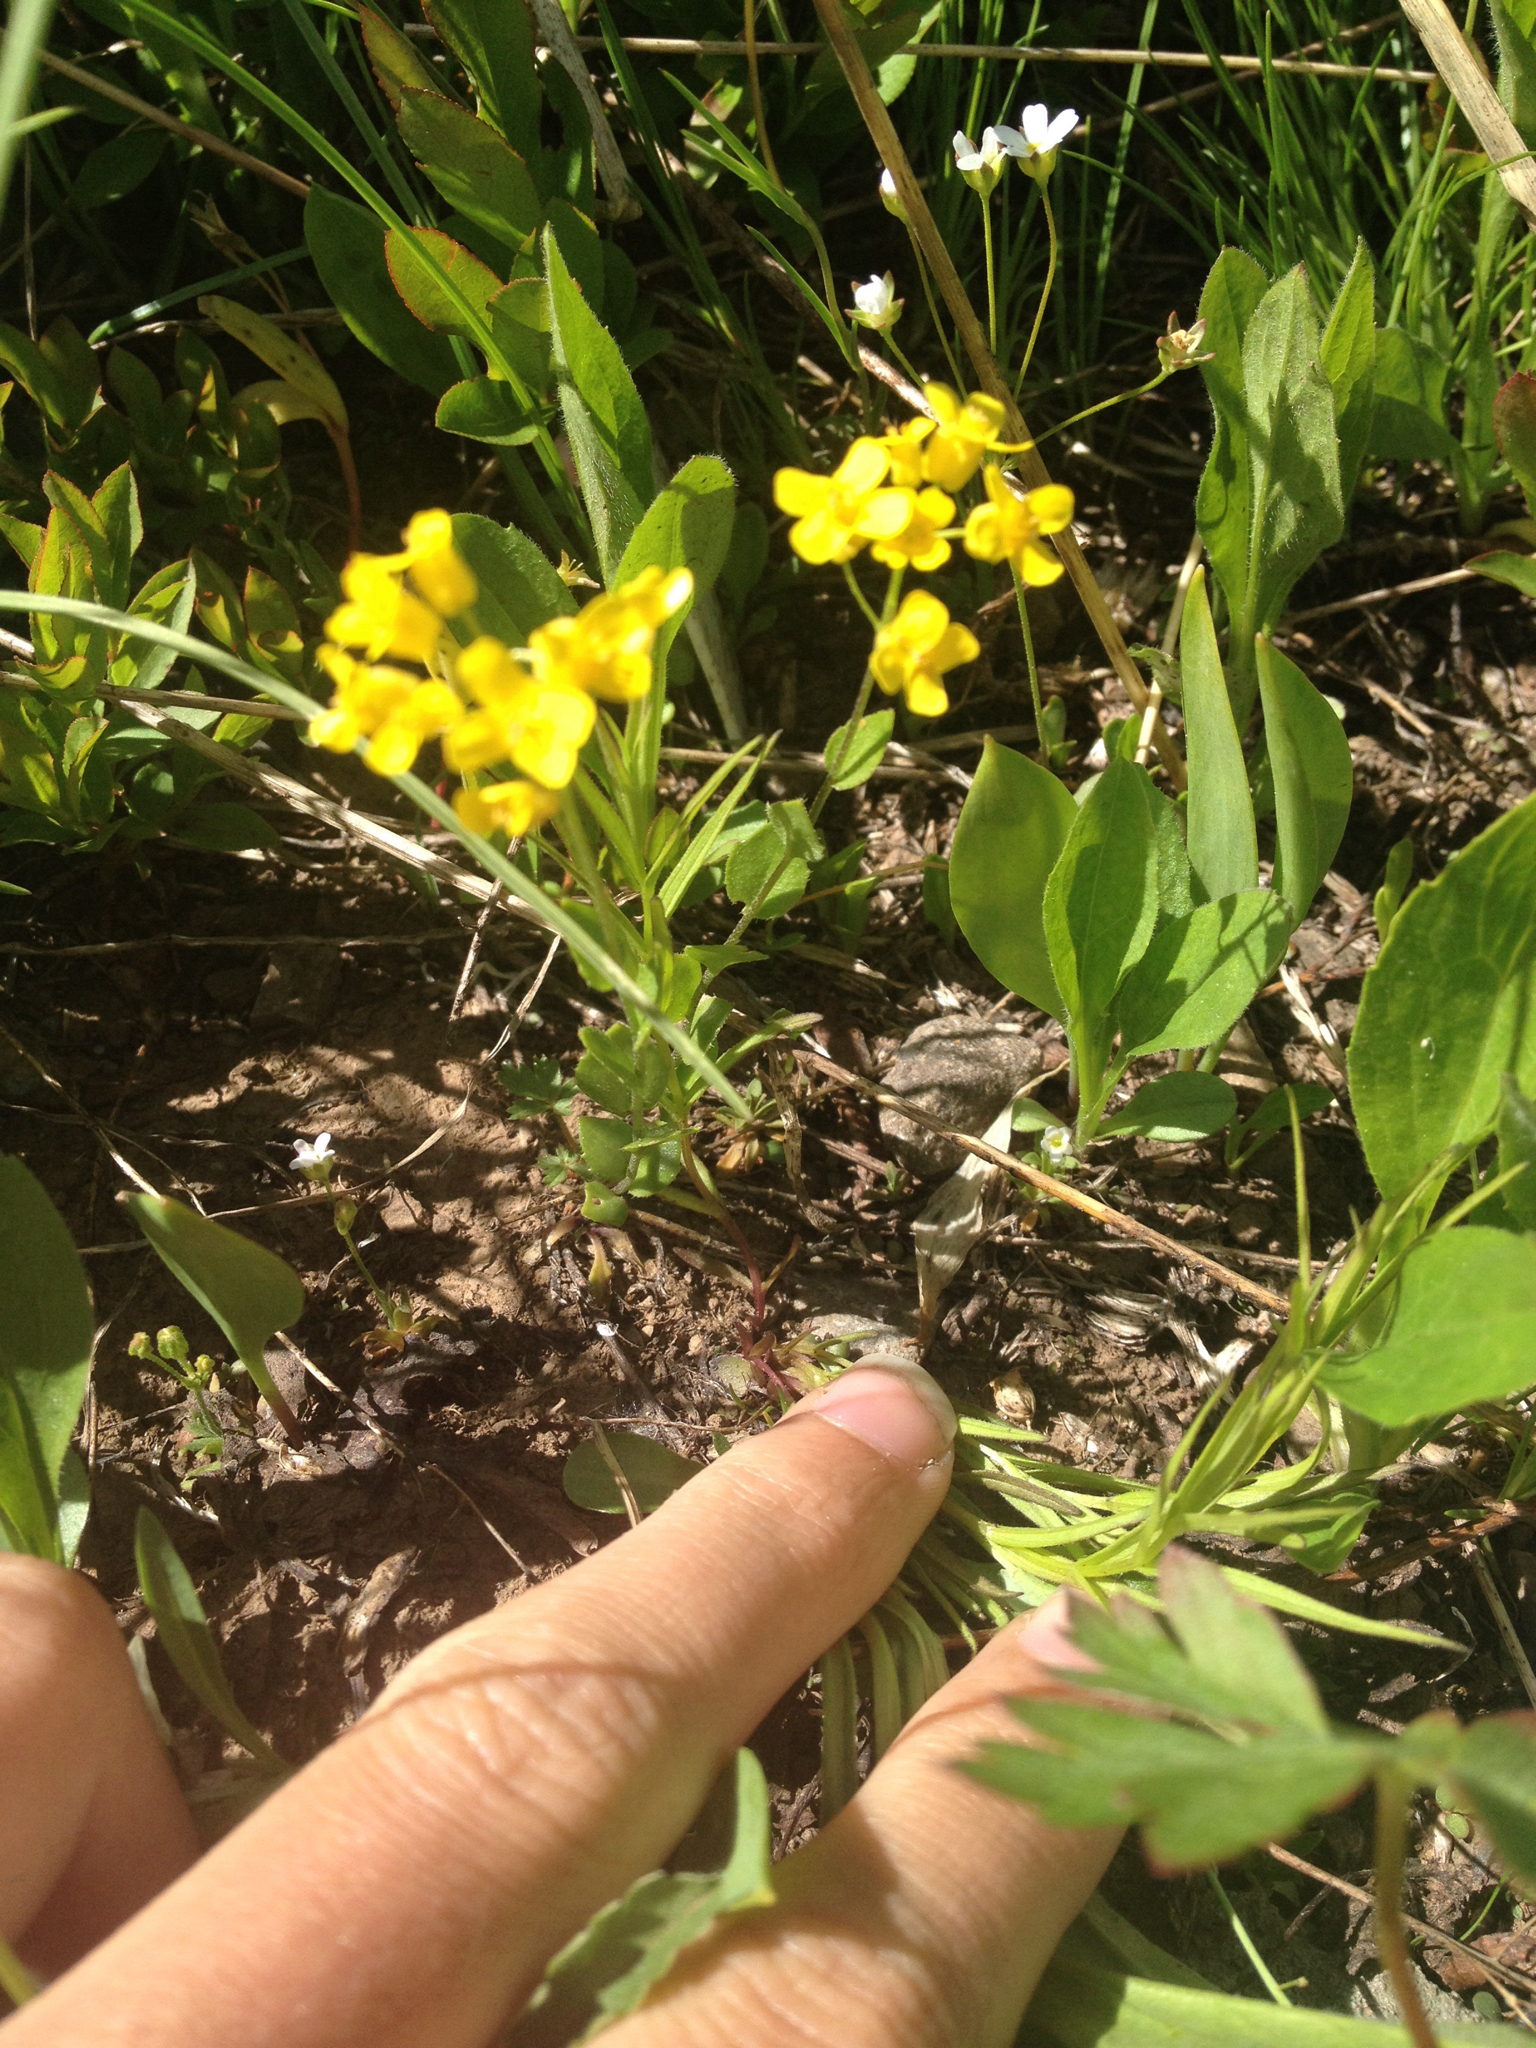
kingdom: Plantae
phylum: Tracheophyta
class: Magnoliopsida
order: Brassicales
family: Brassicaceae
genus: Draba
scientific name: Draba spectabilis
